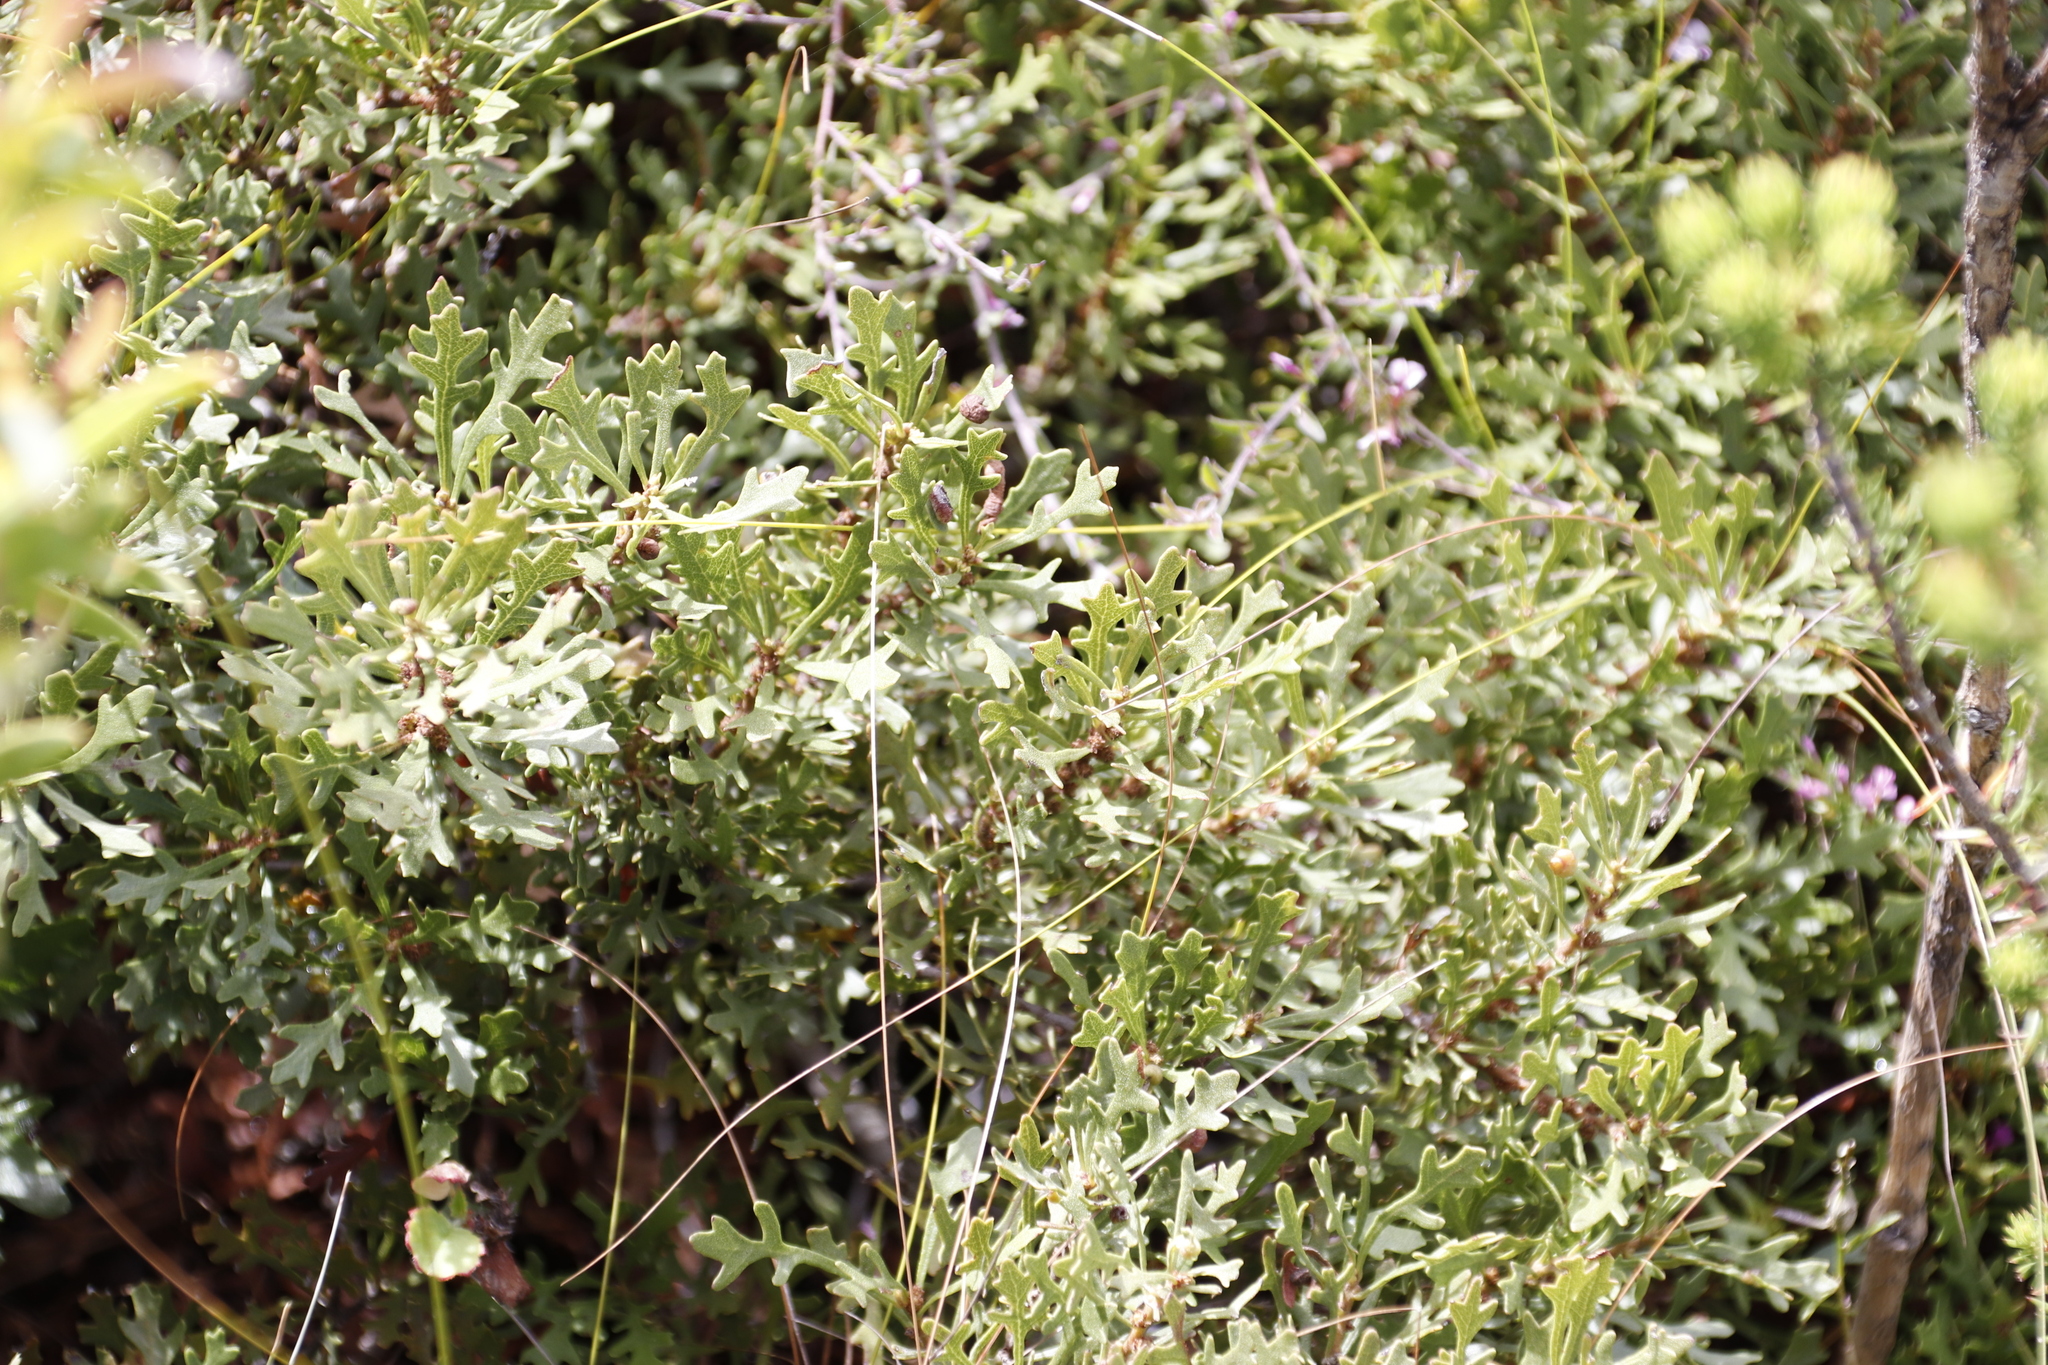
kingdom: Plantae
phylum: Tracheophyta
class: Magnoliopsida
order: Fagales
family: Myricaceae
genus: Morella
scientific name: Morella quercifolia
